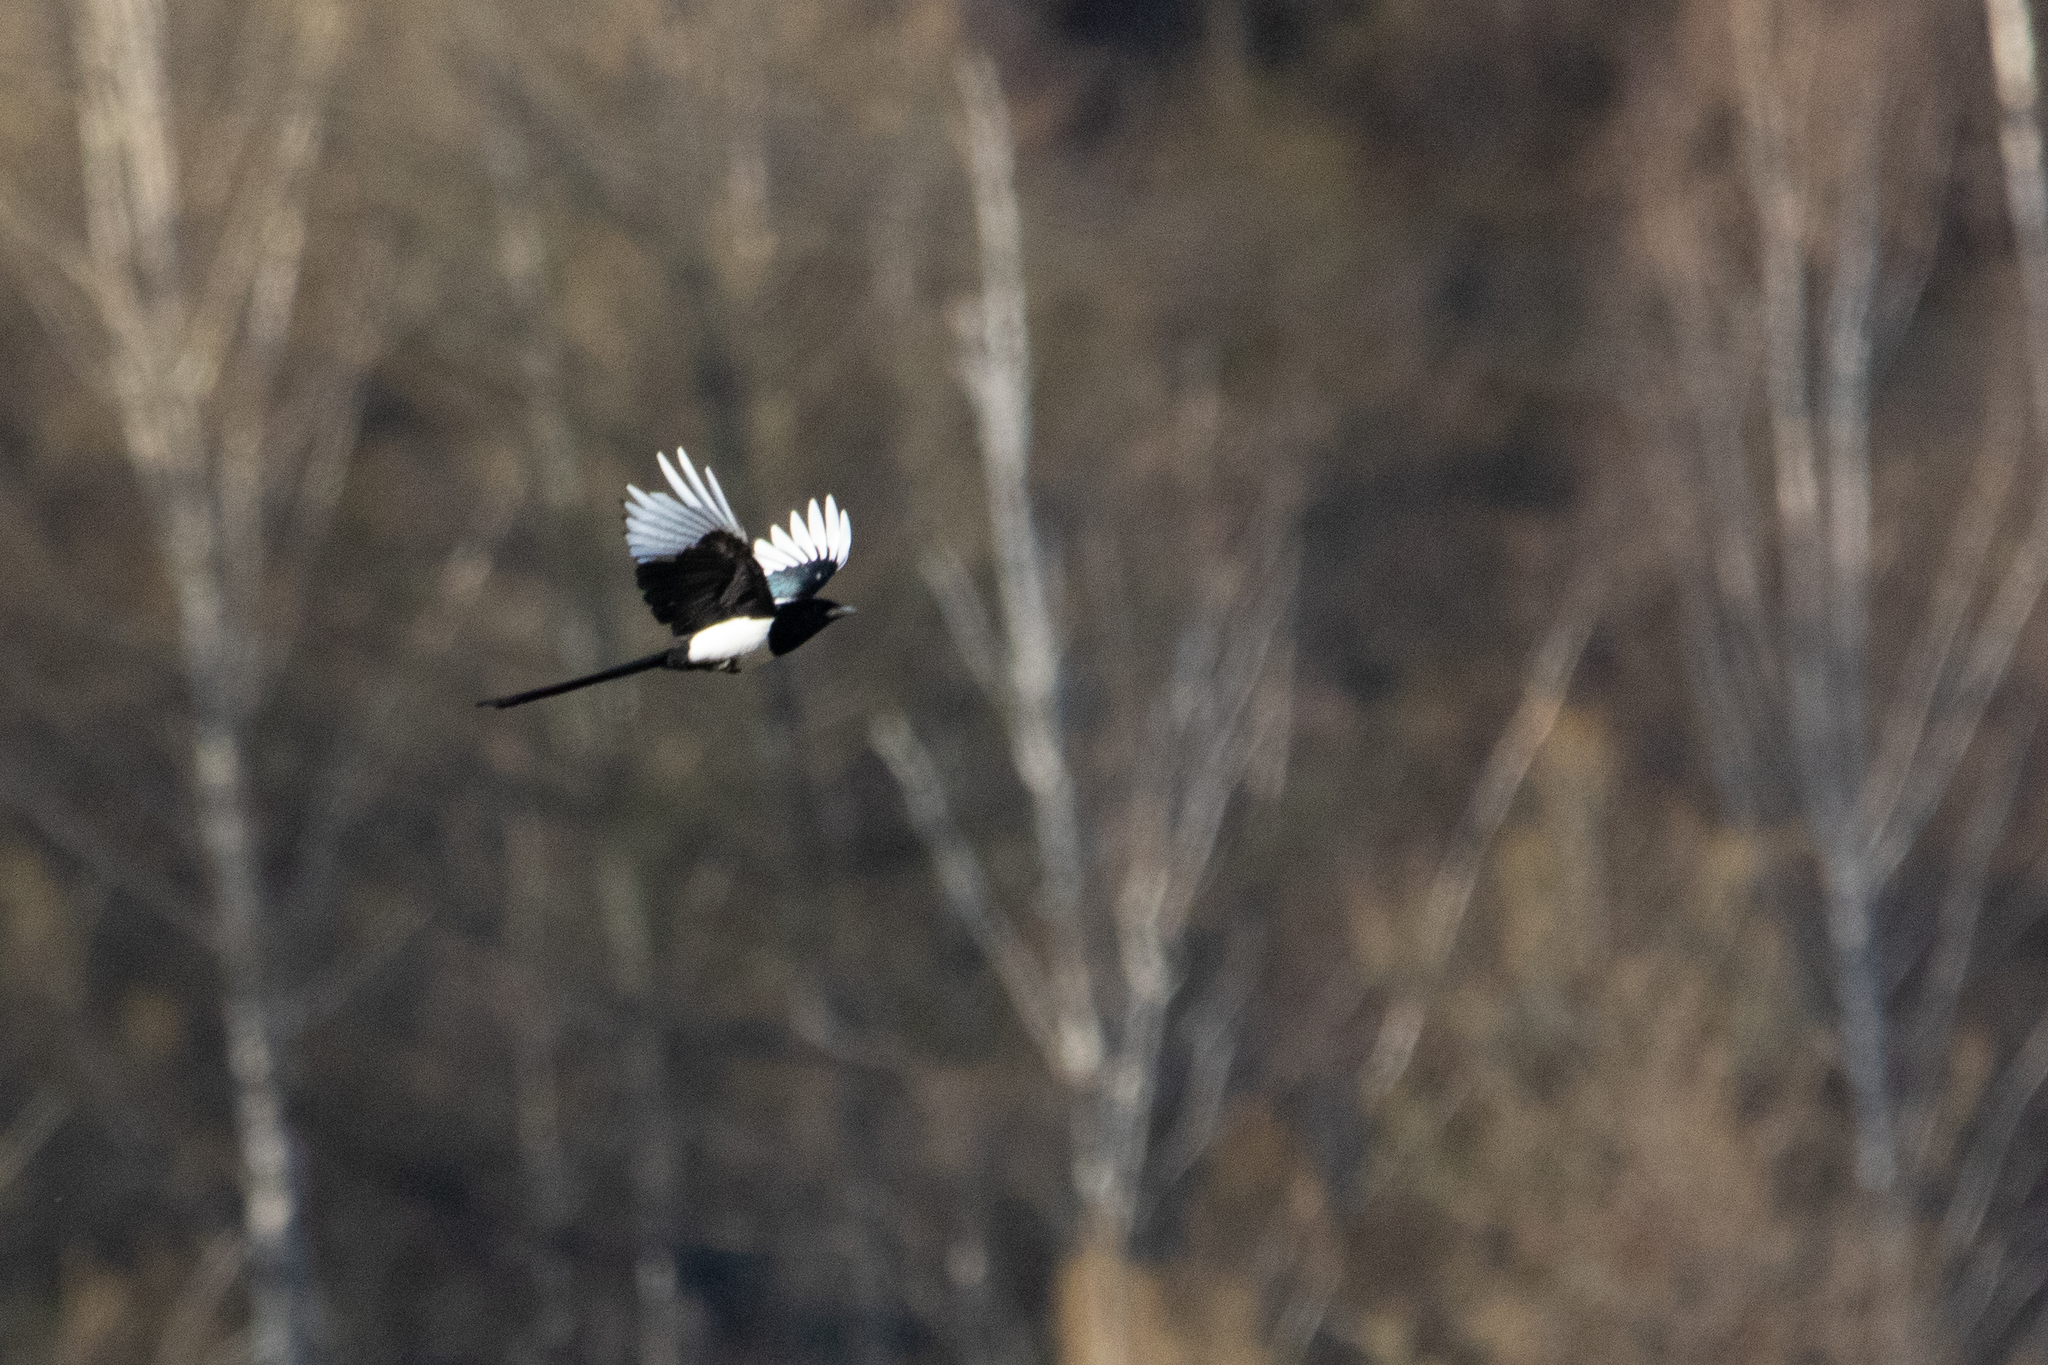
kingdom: Animalia
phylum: Chordata
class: Aves
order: Passeriformes
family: Corvidae
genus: Pica
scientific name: Pica pica
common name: Eurasian magpie
